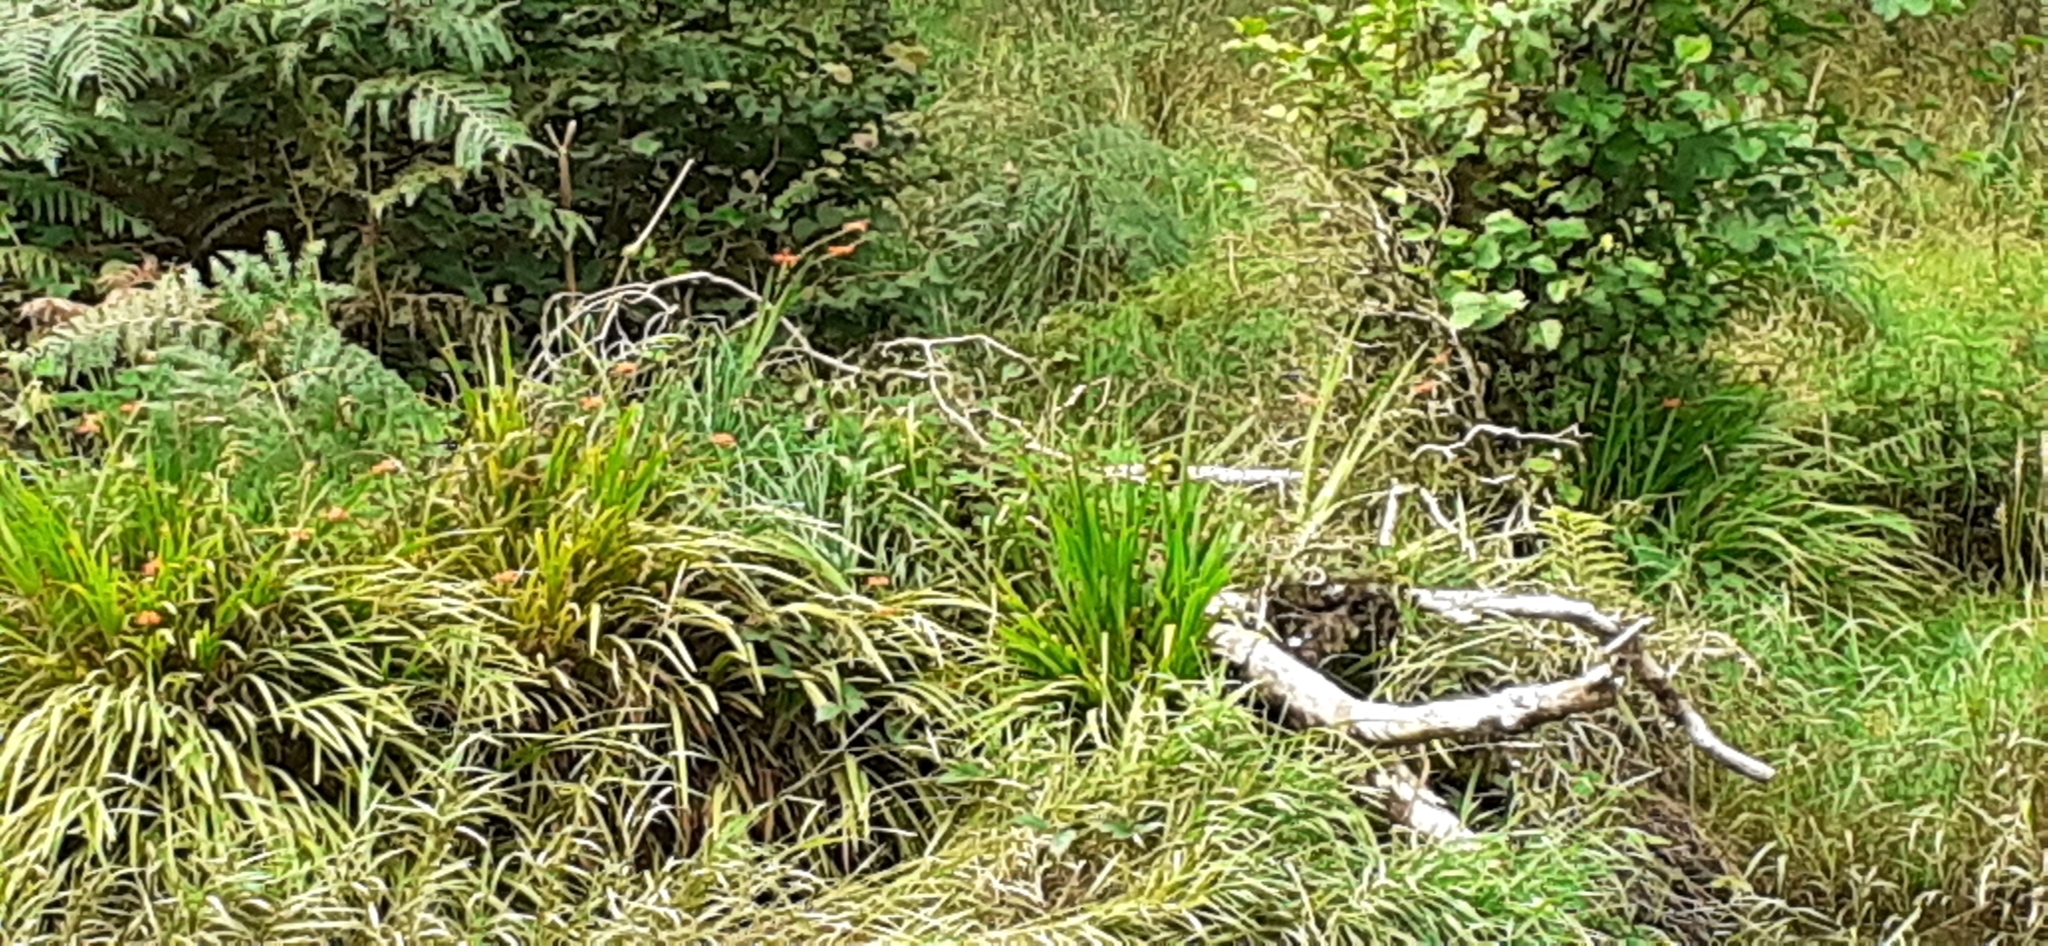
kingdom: Plantae
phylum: Tracheophyta
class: Liliopsida
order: Asparagales
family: Iridaceae
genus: Crocosmia
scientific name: Crocosmia crocosmiiflora
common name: Montbretia
